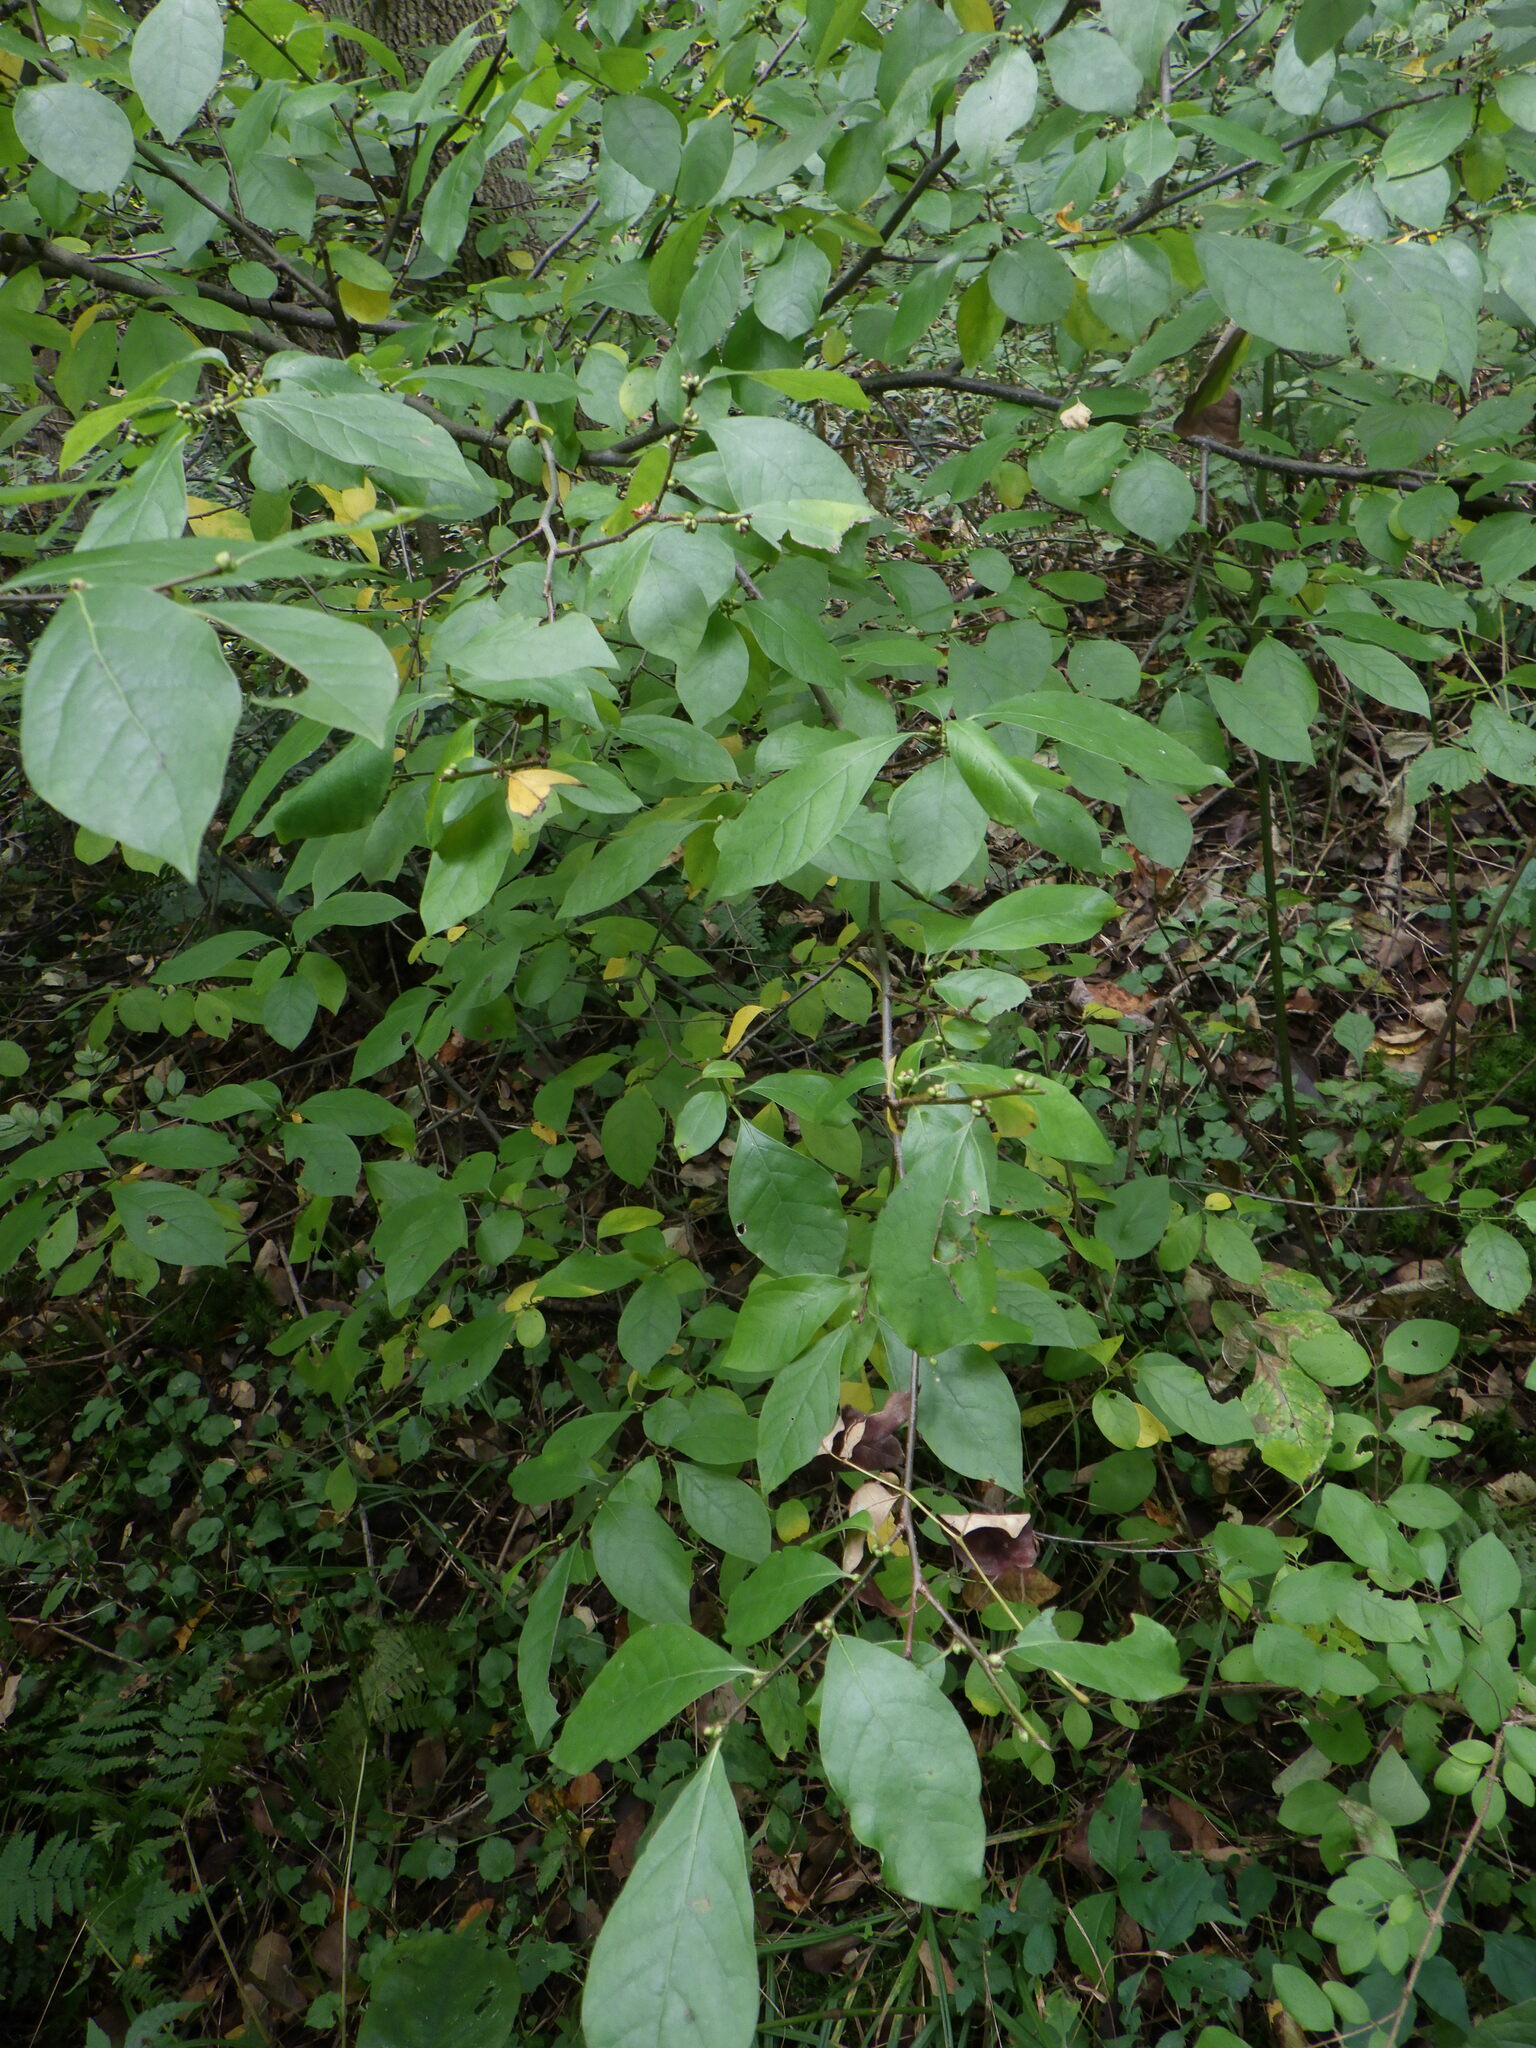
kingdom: Plantae
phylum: Tracheophyta
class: Magnoliopsida
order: Laurales
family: Lauraceae
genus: Lindera
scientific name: Lindera benzoin
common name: Spicebush
